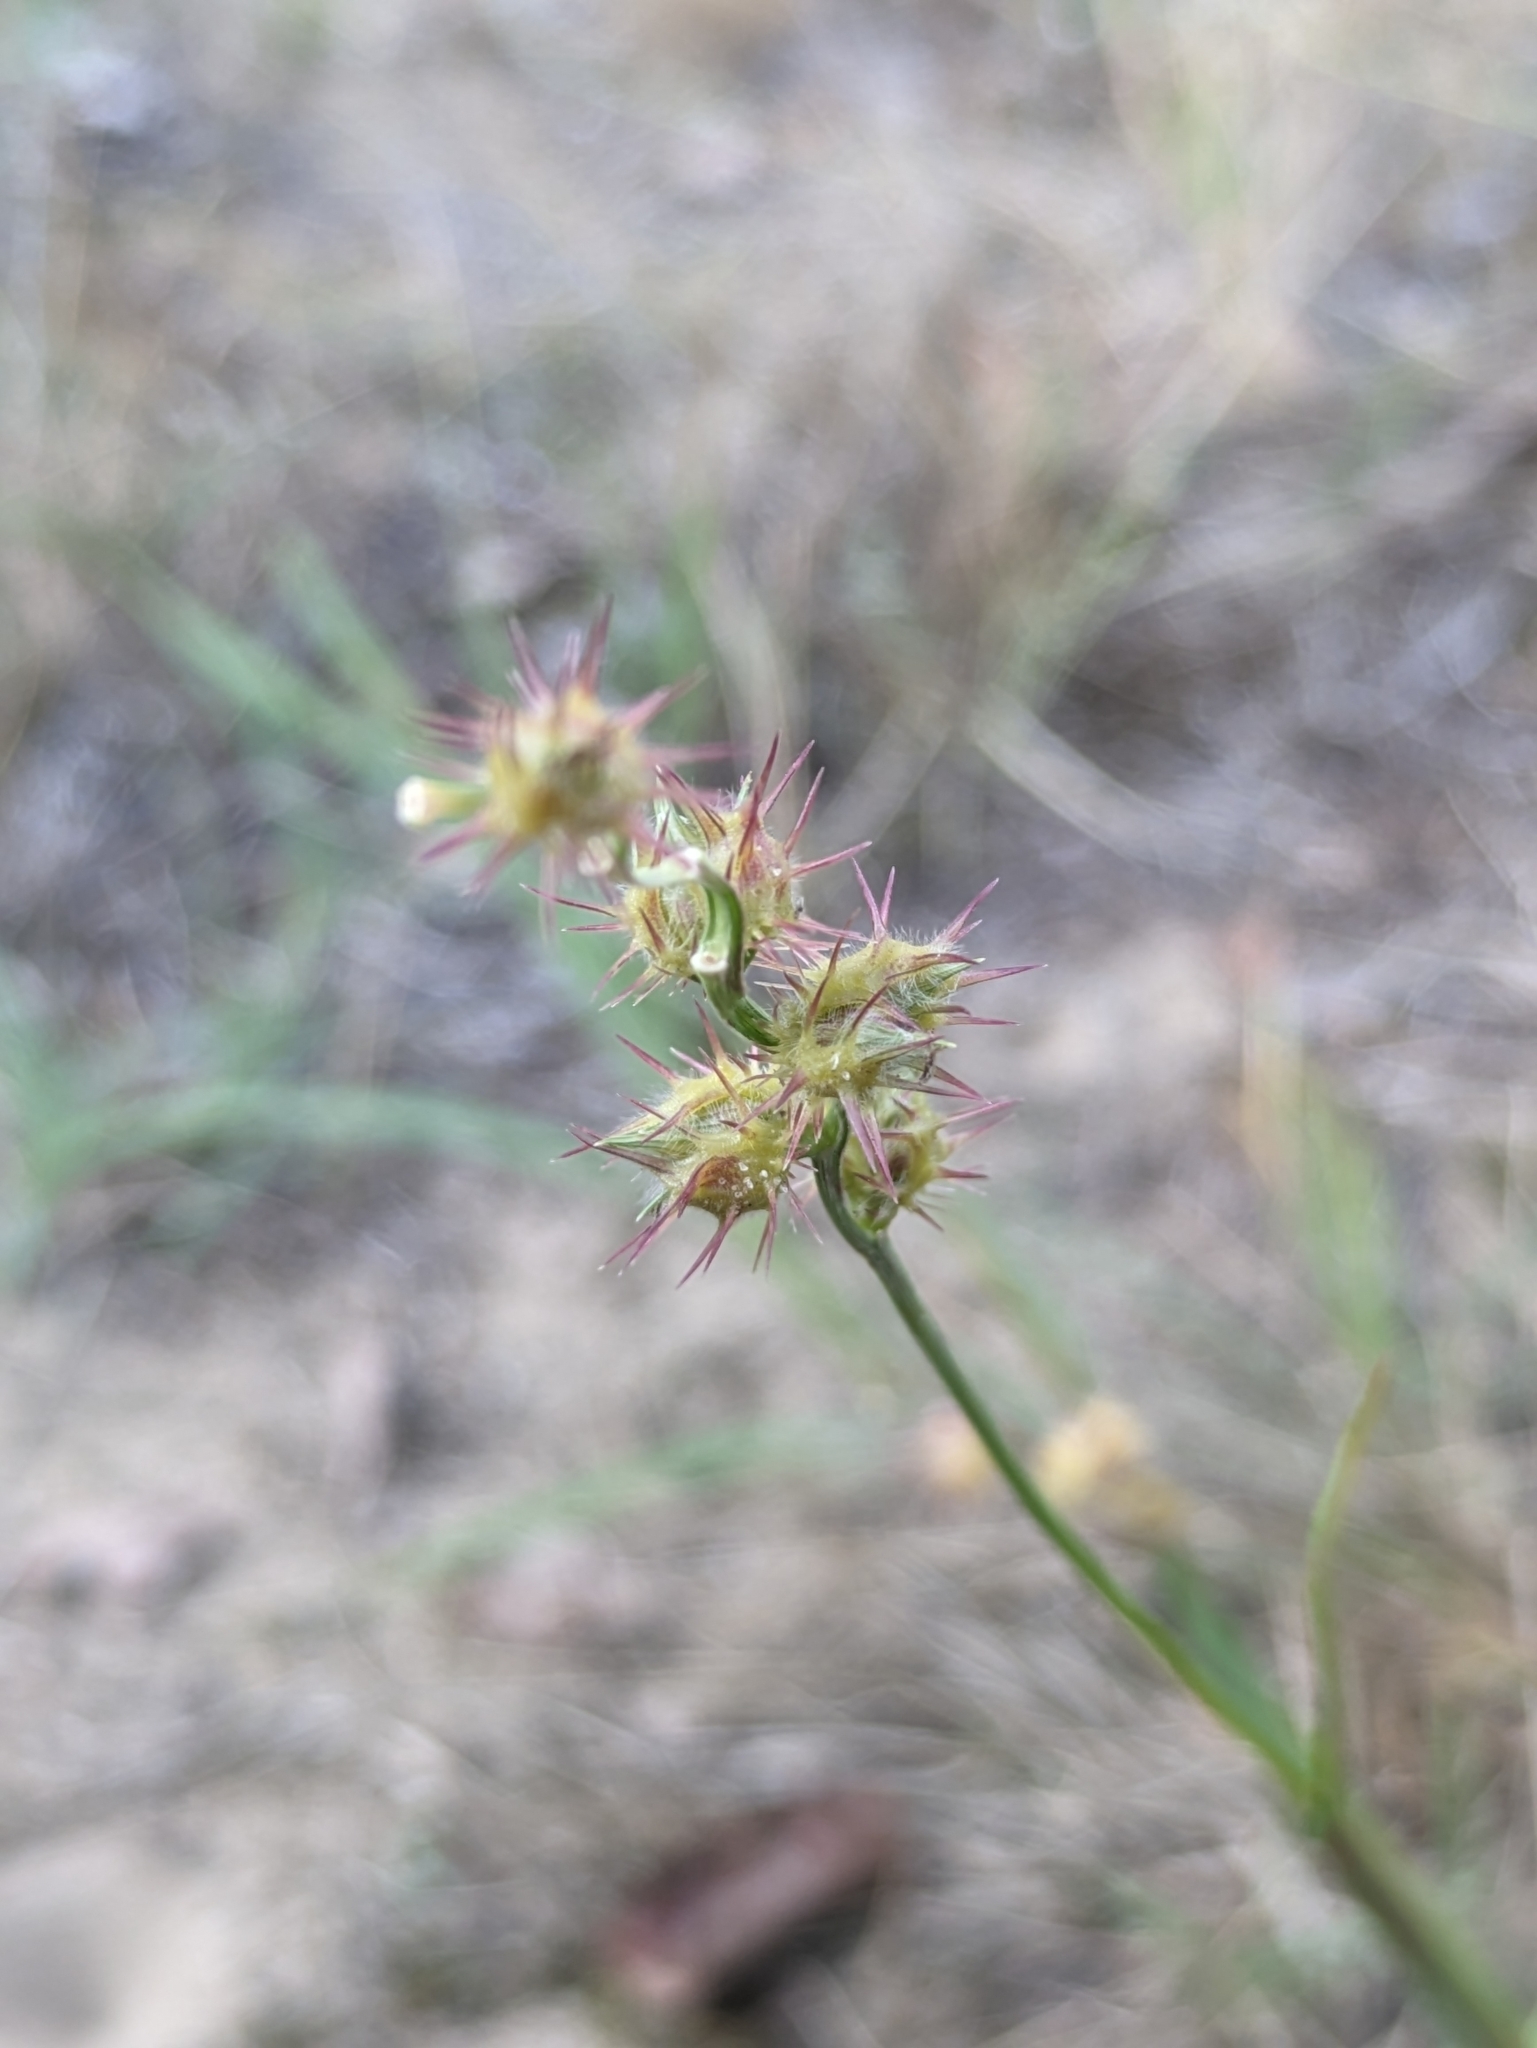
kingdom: Plantae
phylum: Tracheophyta
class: Liliopsida
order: Poales
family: Poaceae
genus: Cenchrus
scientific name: Cenchrus spinifex
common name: Coast sandbur
